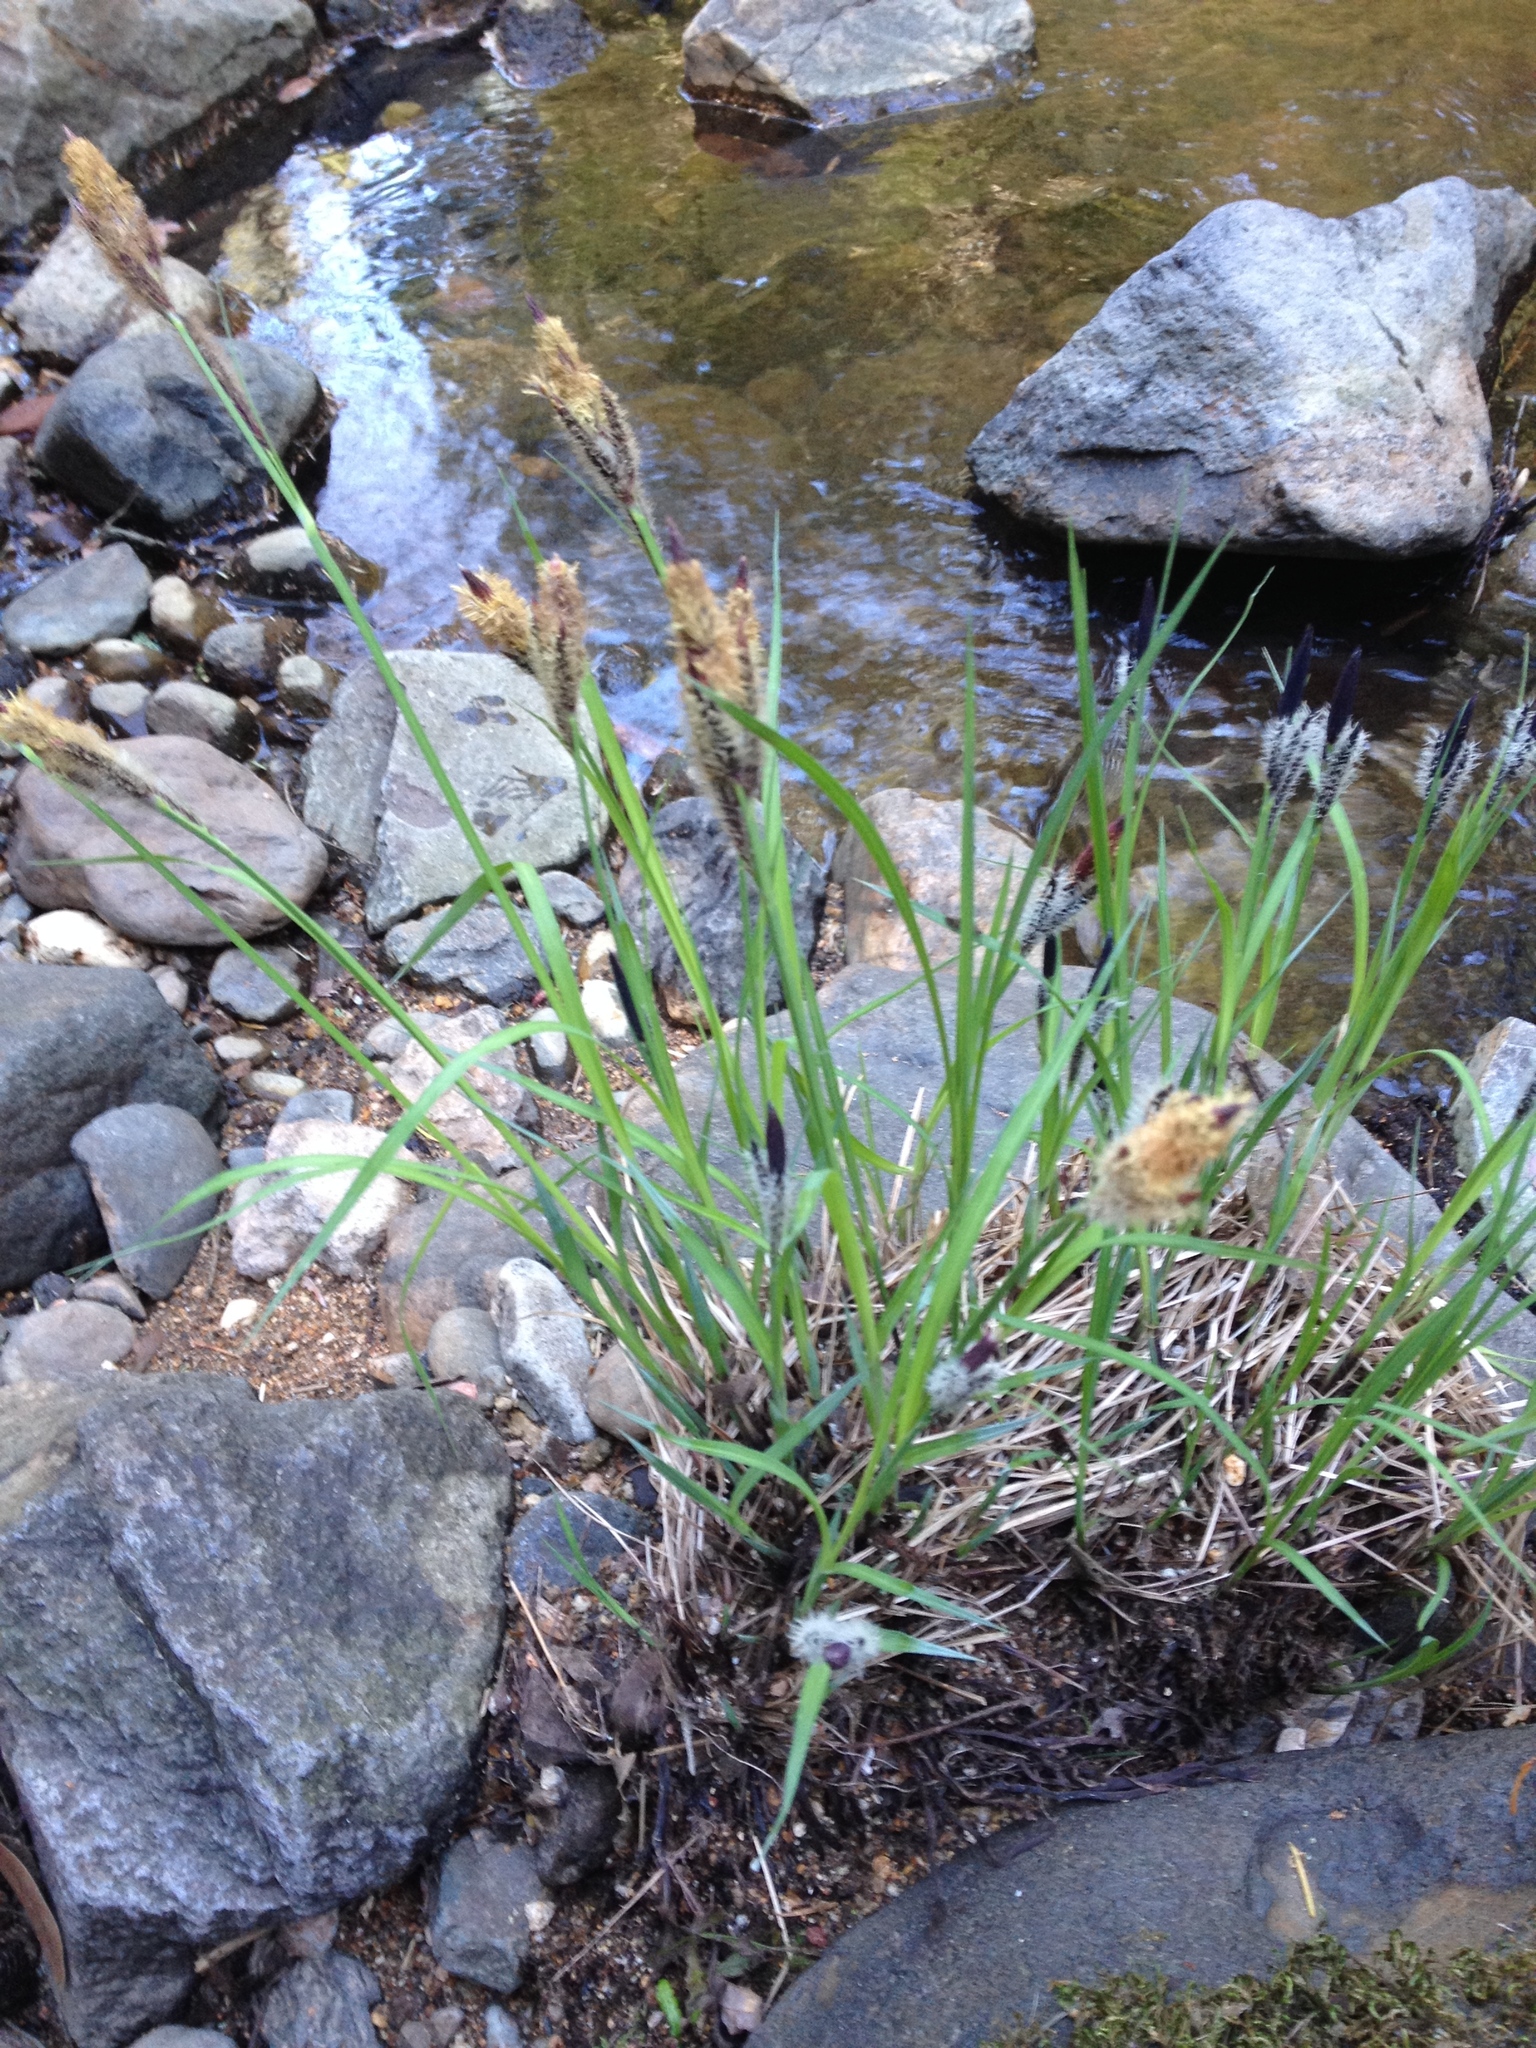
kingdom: Plantae
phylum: Tracheophyta
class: Liliopsida
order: Poales
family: Cyperaceae
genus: Carex
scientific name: Carex nudata
